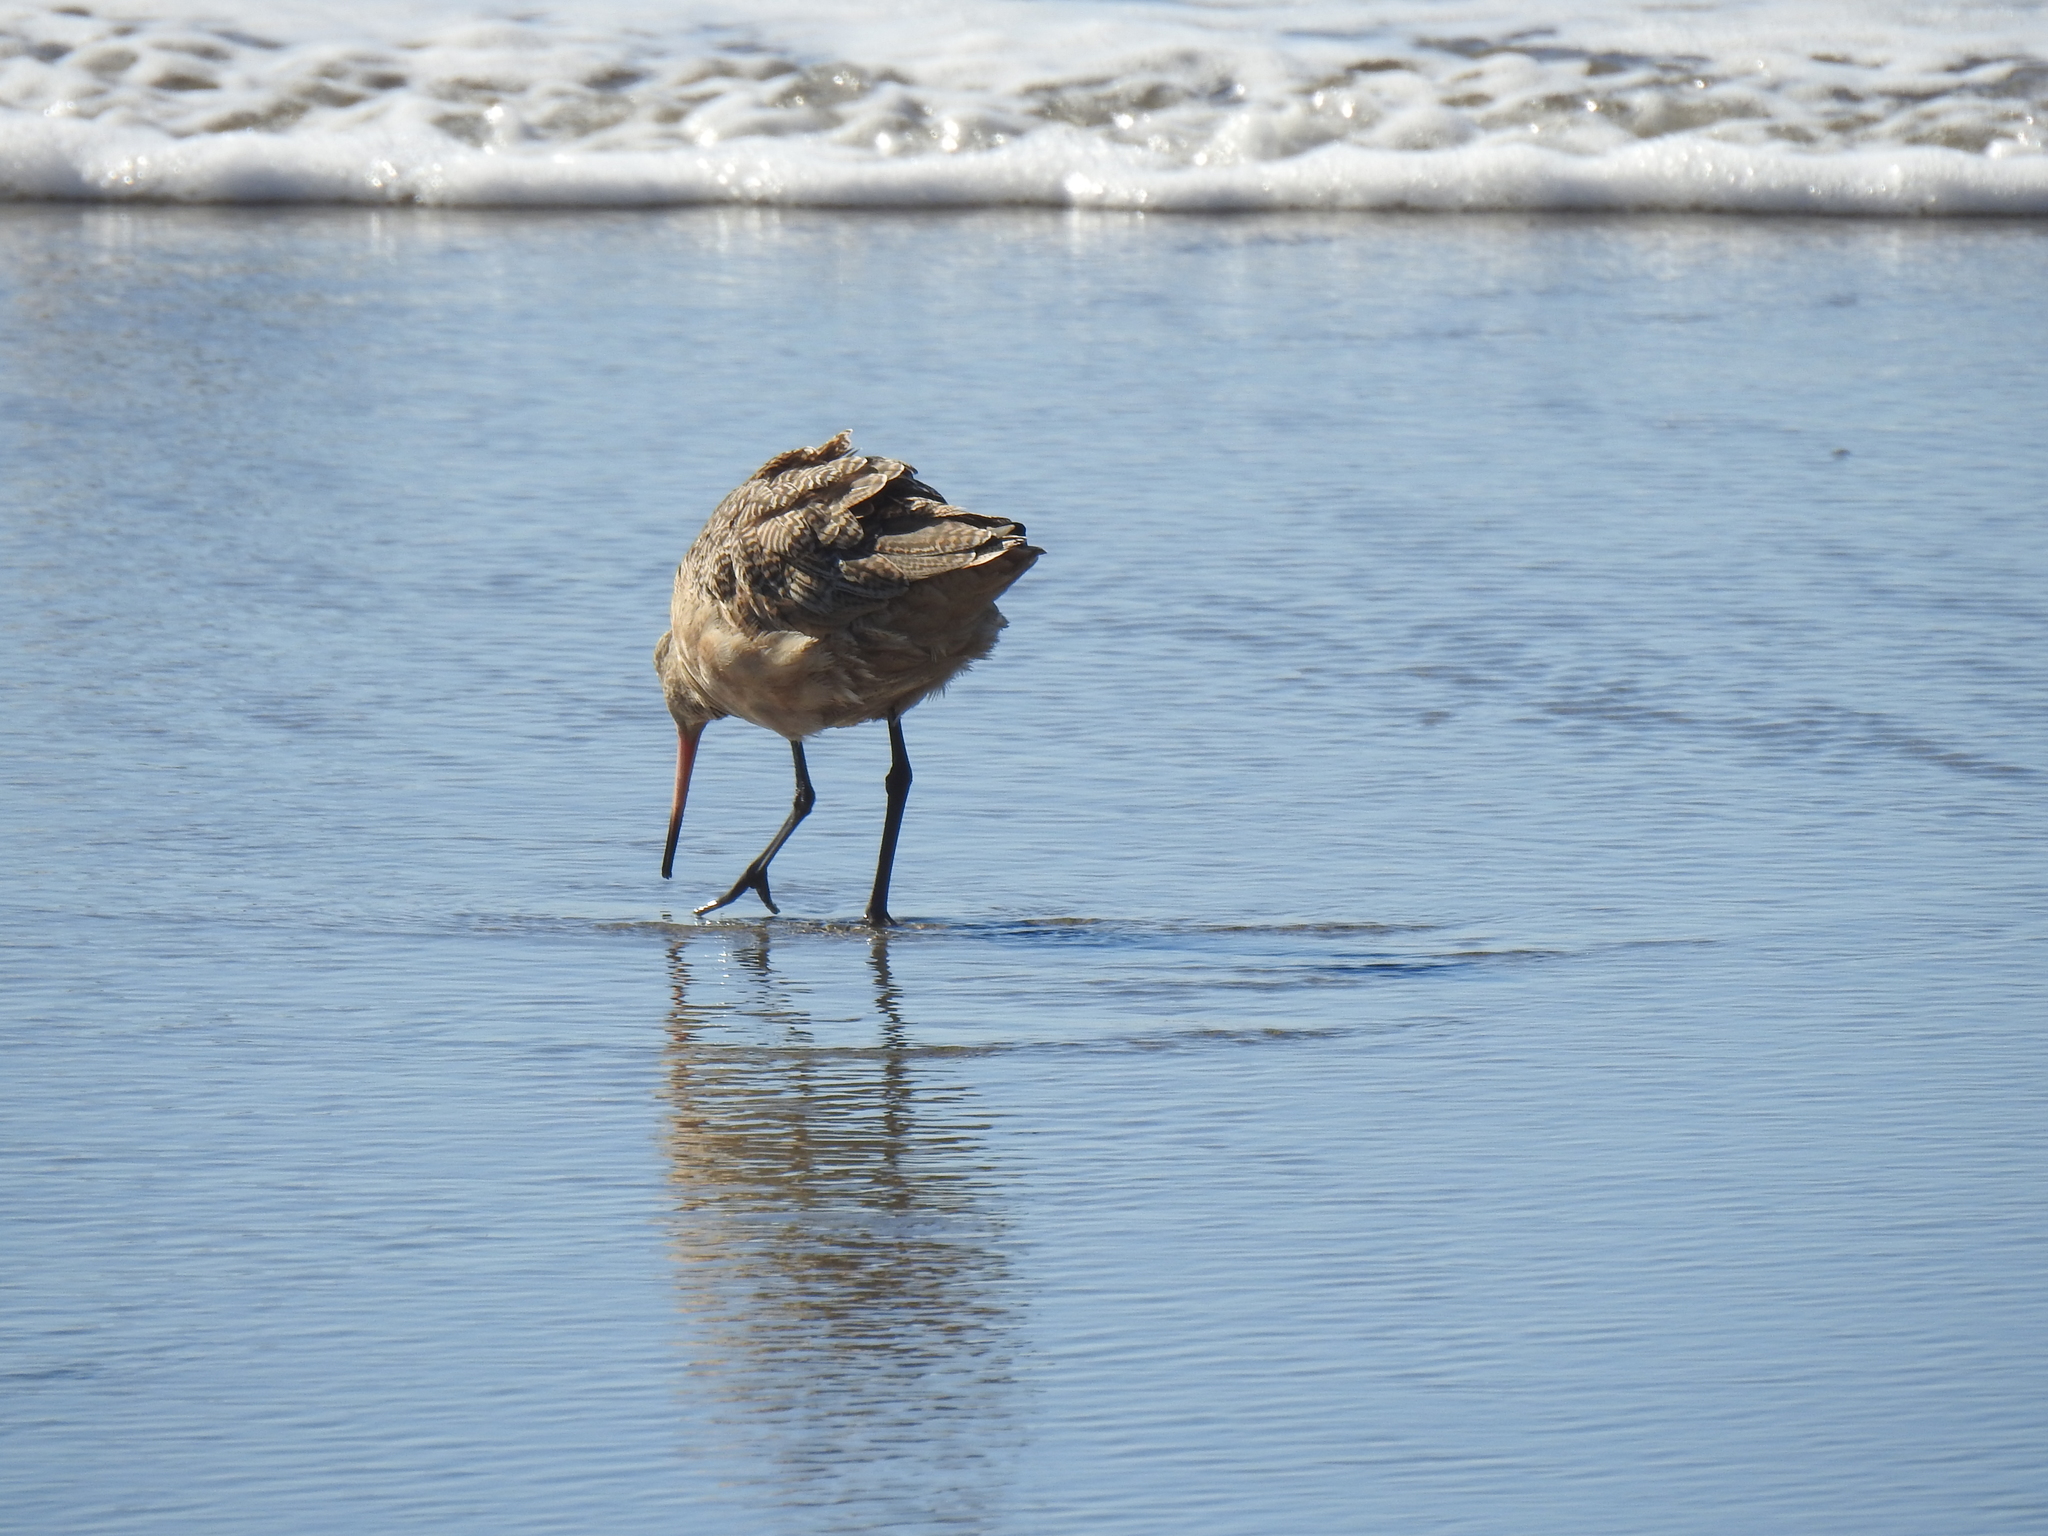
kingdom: Animalia
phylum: Chordata
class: Aves
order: Charadriiformes
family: Scolopacidae
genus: Limosa
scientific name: Limosa fedoa
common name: Marbled godwit
